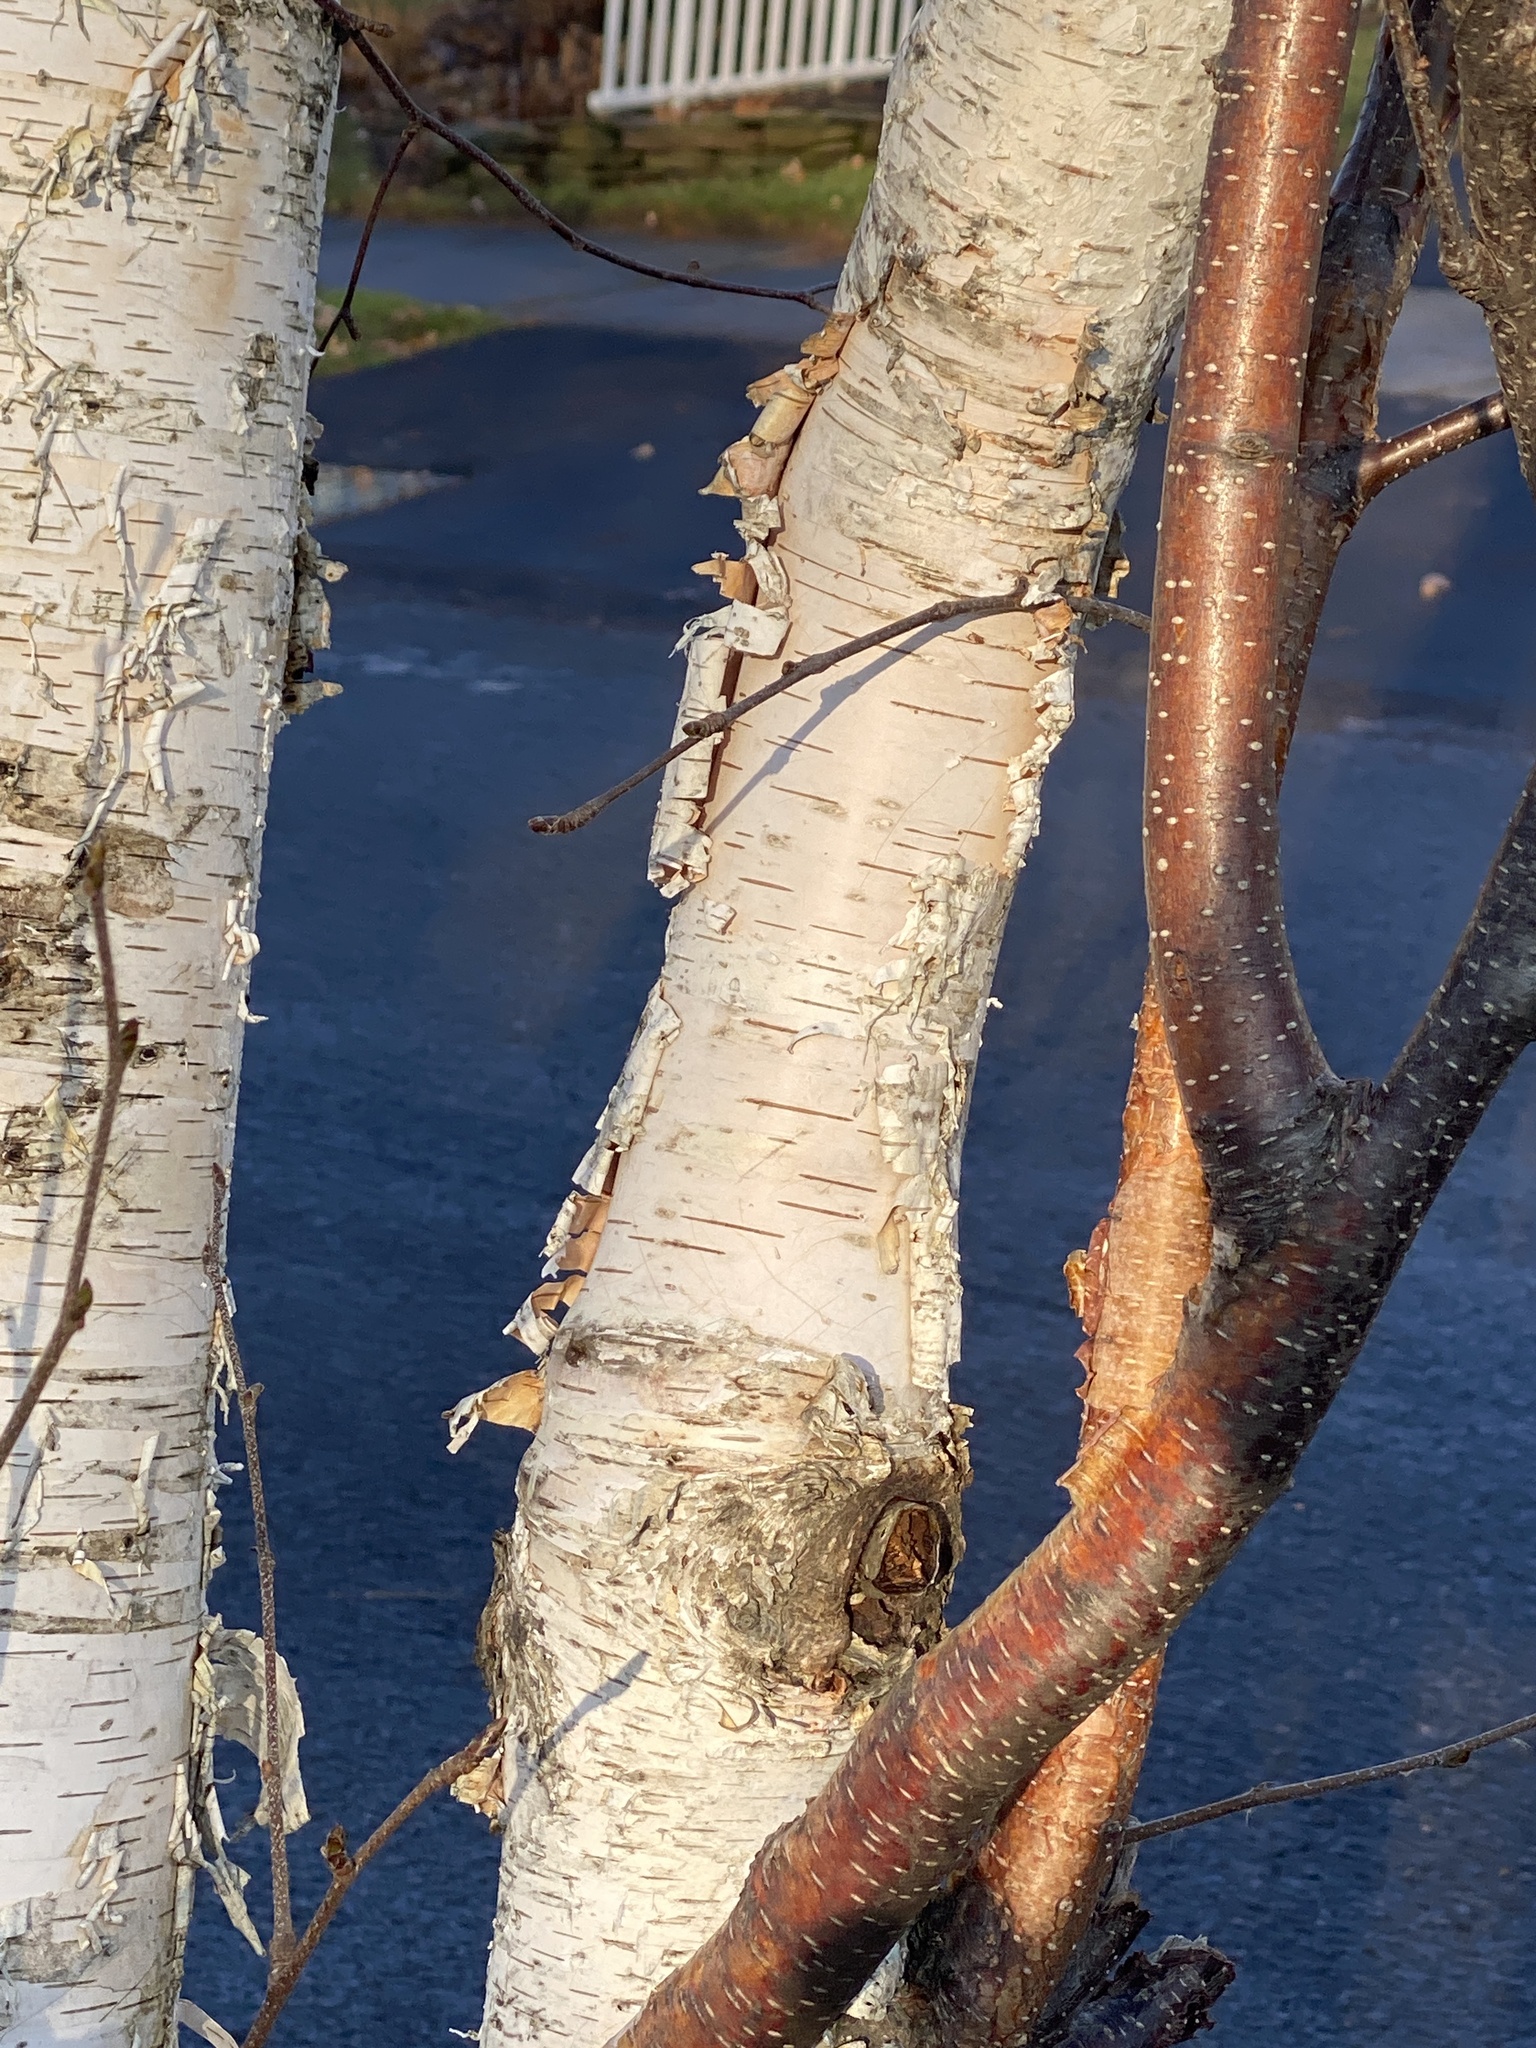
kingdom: Plantae
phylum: Tracheophyta
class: Magnoliopsida
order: Fagales
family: Betulaceae
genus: Betula
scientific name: Betula papyrifera
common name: Paper birch
